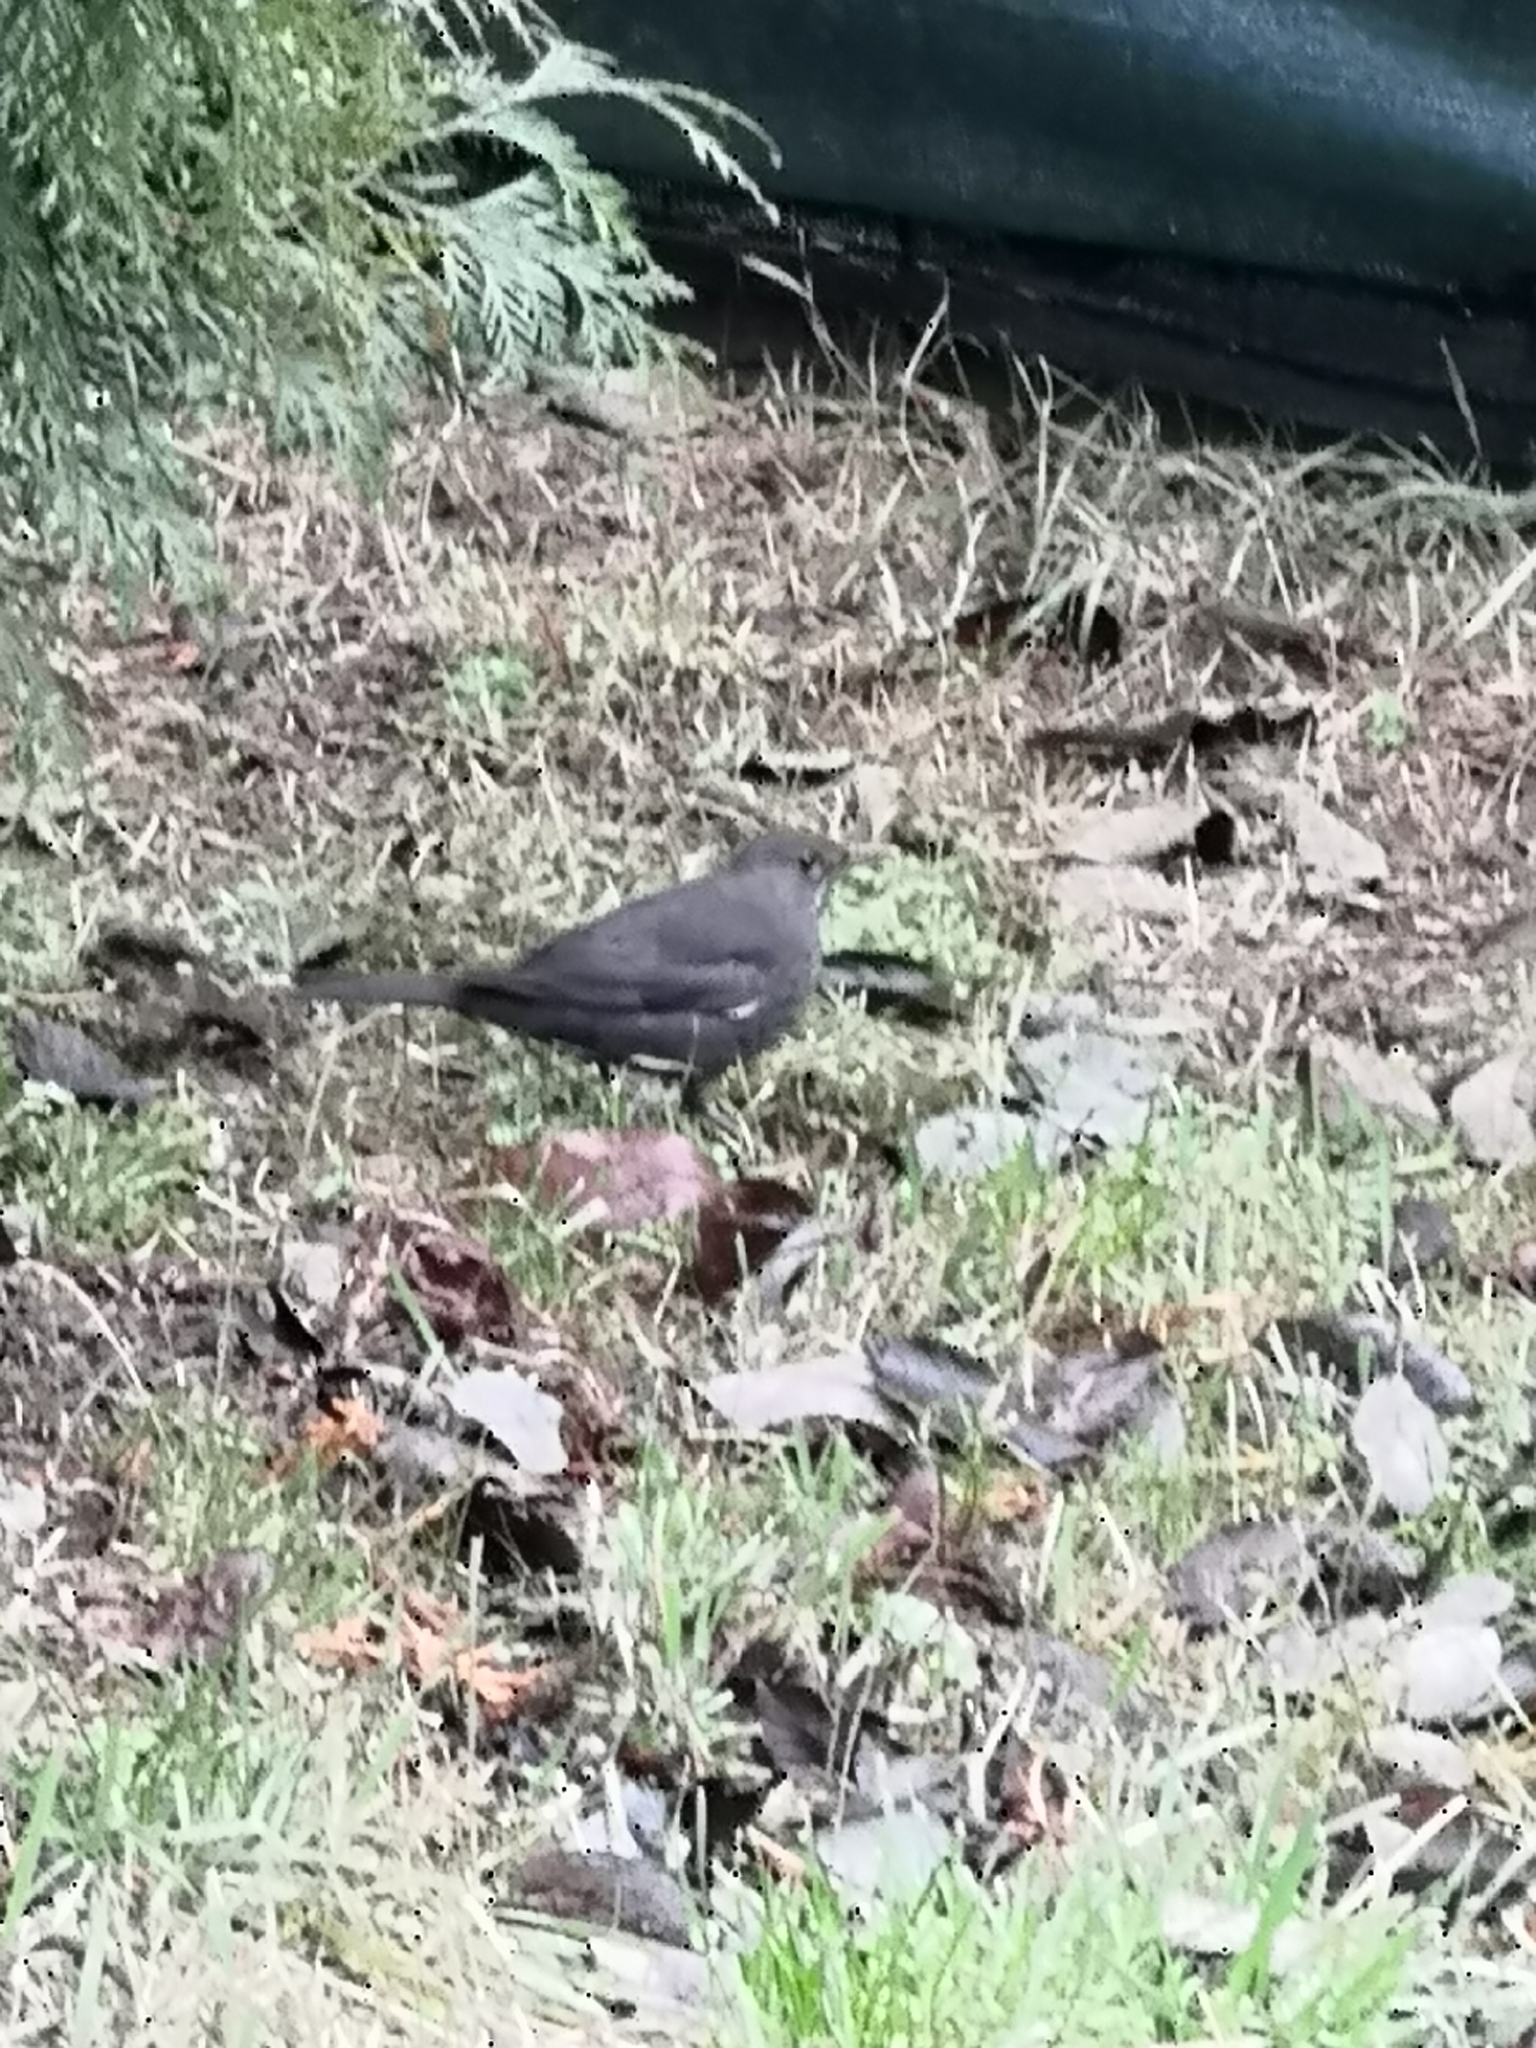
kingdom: Animalia
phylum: Chordata
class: Aves
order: Passeriformes
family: Turdidae
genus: Turdus
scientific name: Turdus merula
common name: Common blackbird
